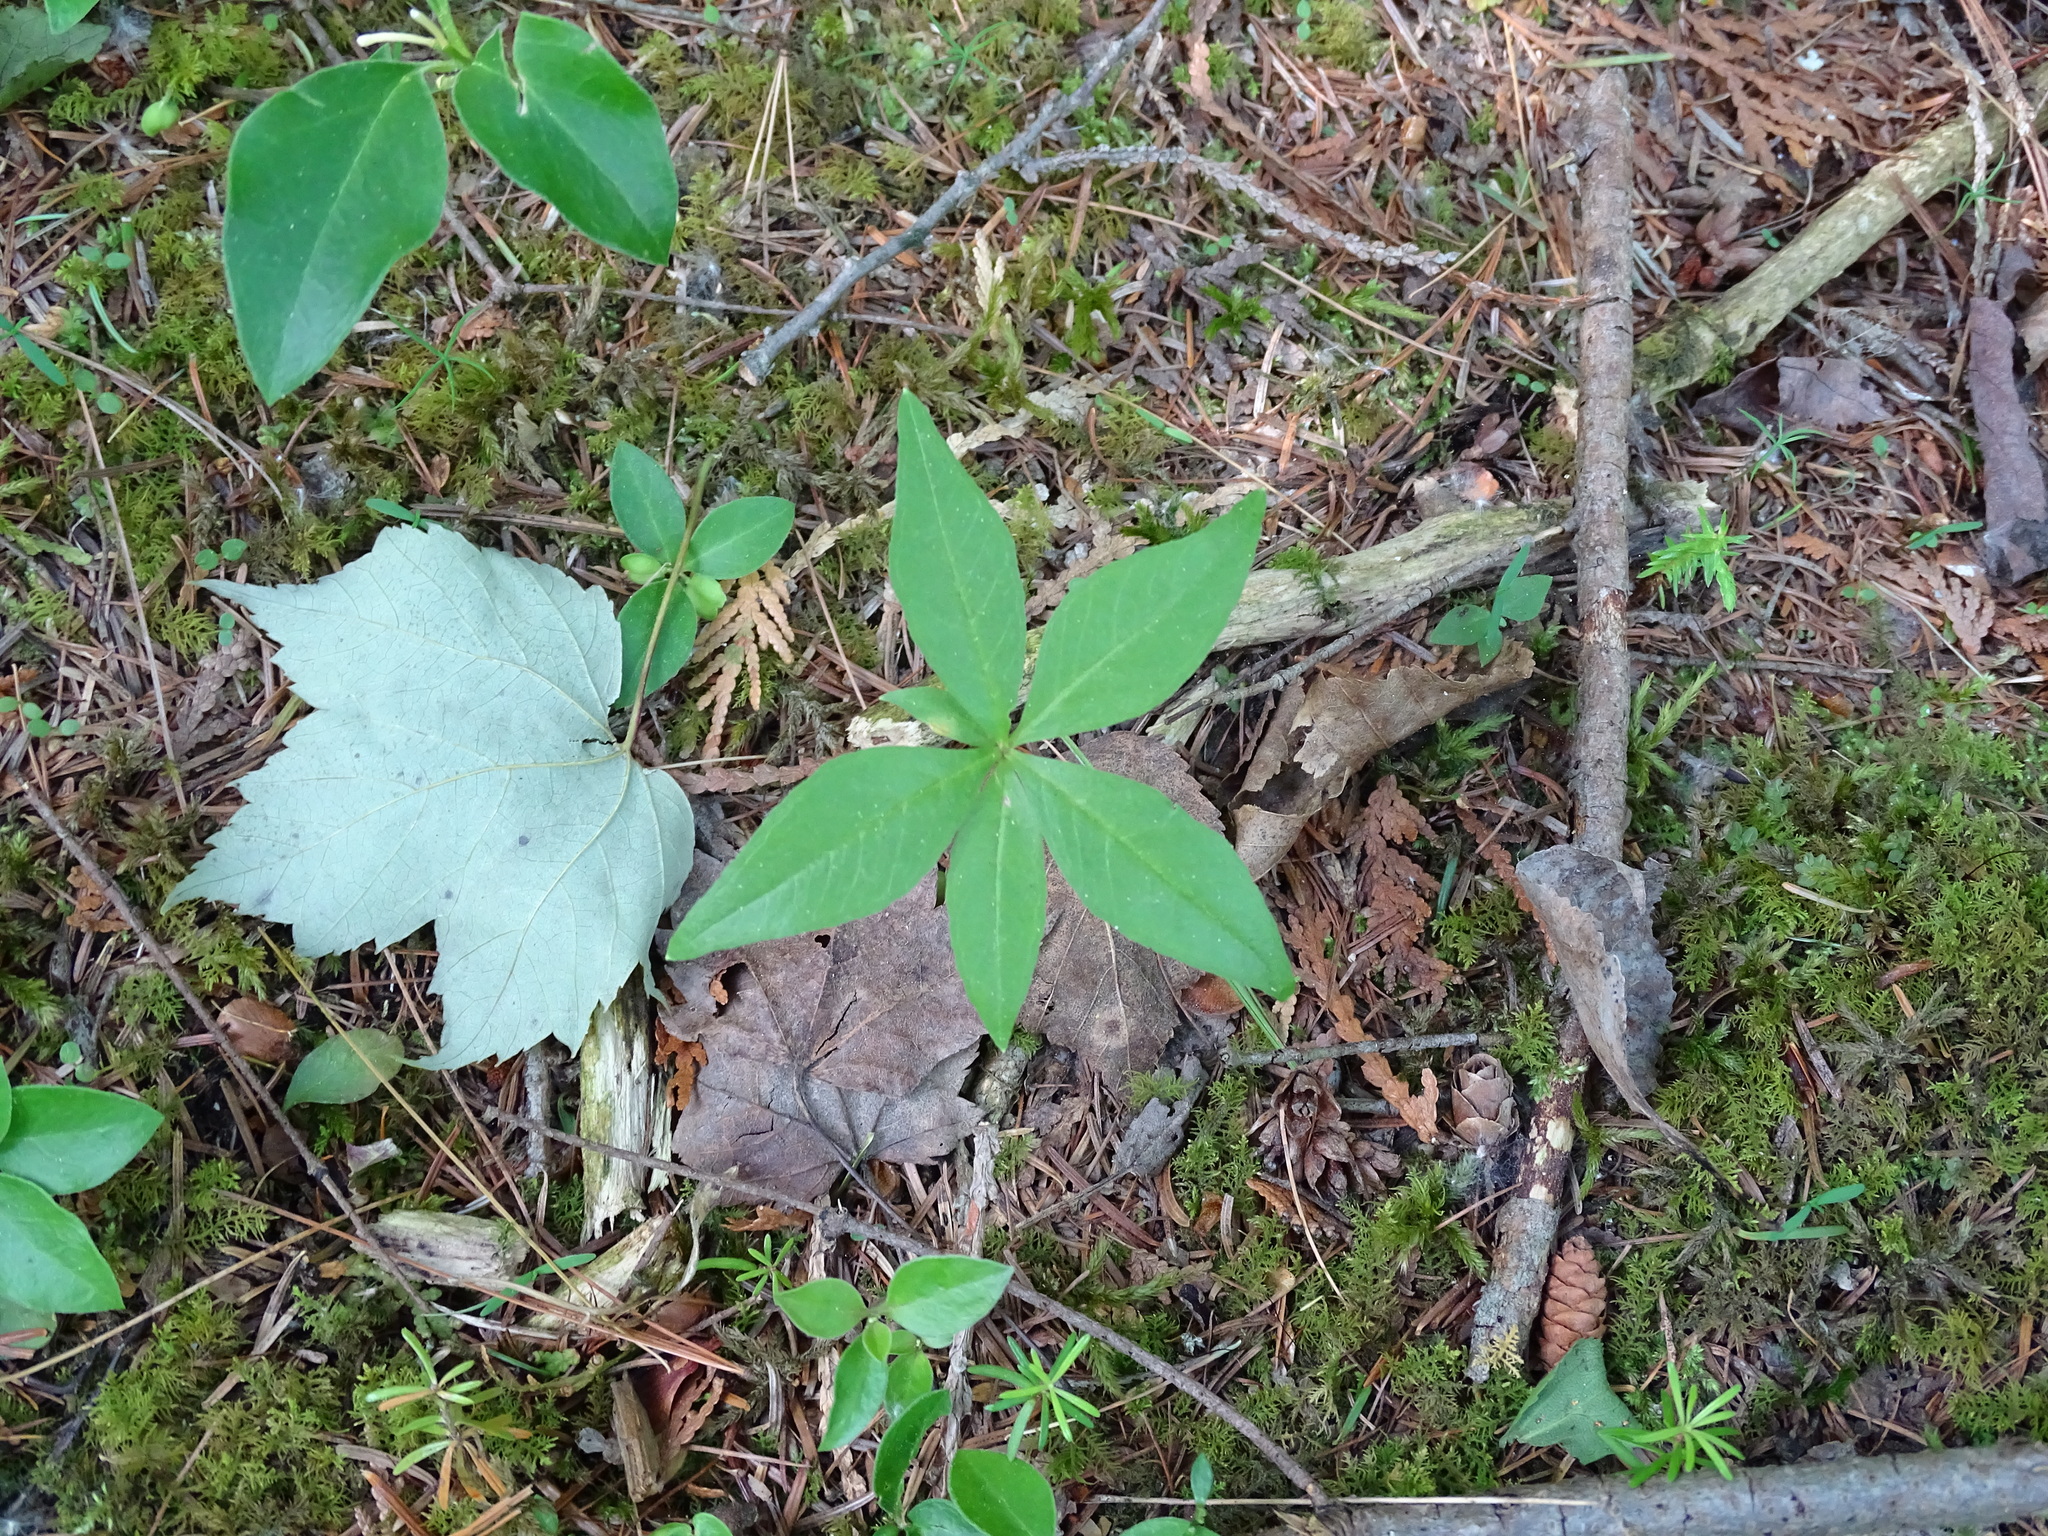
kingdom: Plantae
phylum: Tracheophyta
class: Magnoliopsida
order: Ericales
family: Primulaceae
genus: Lysimachia
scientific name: Lysimachia borealis
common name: American starflower
